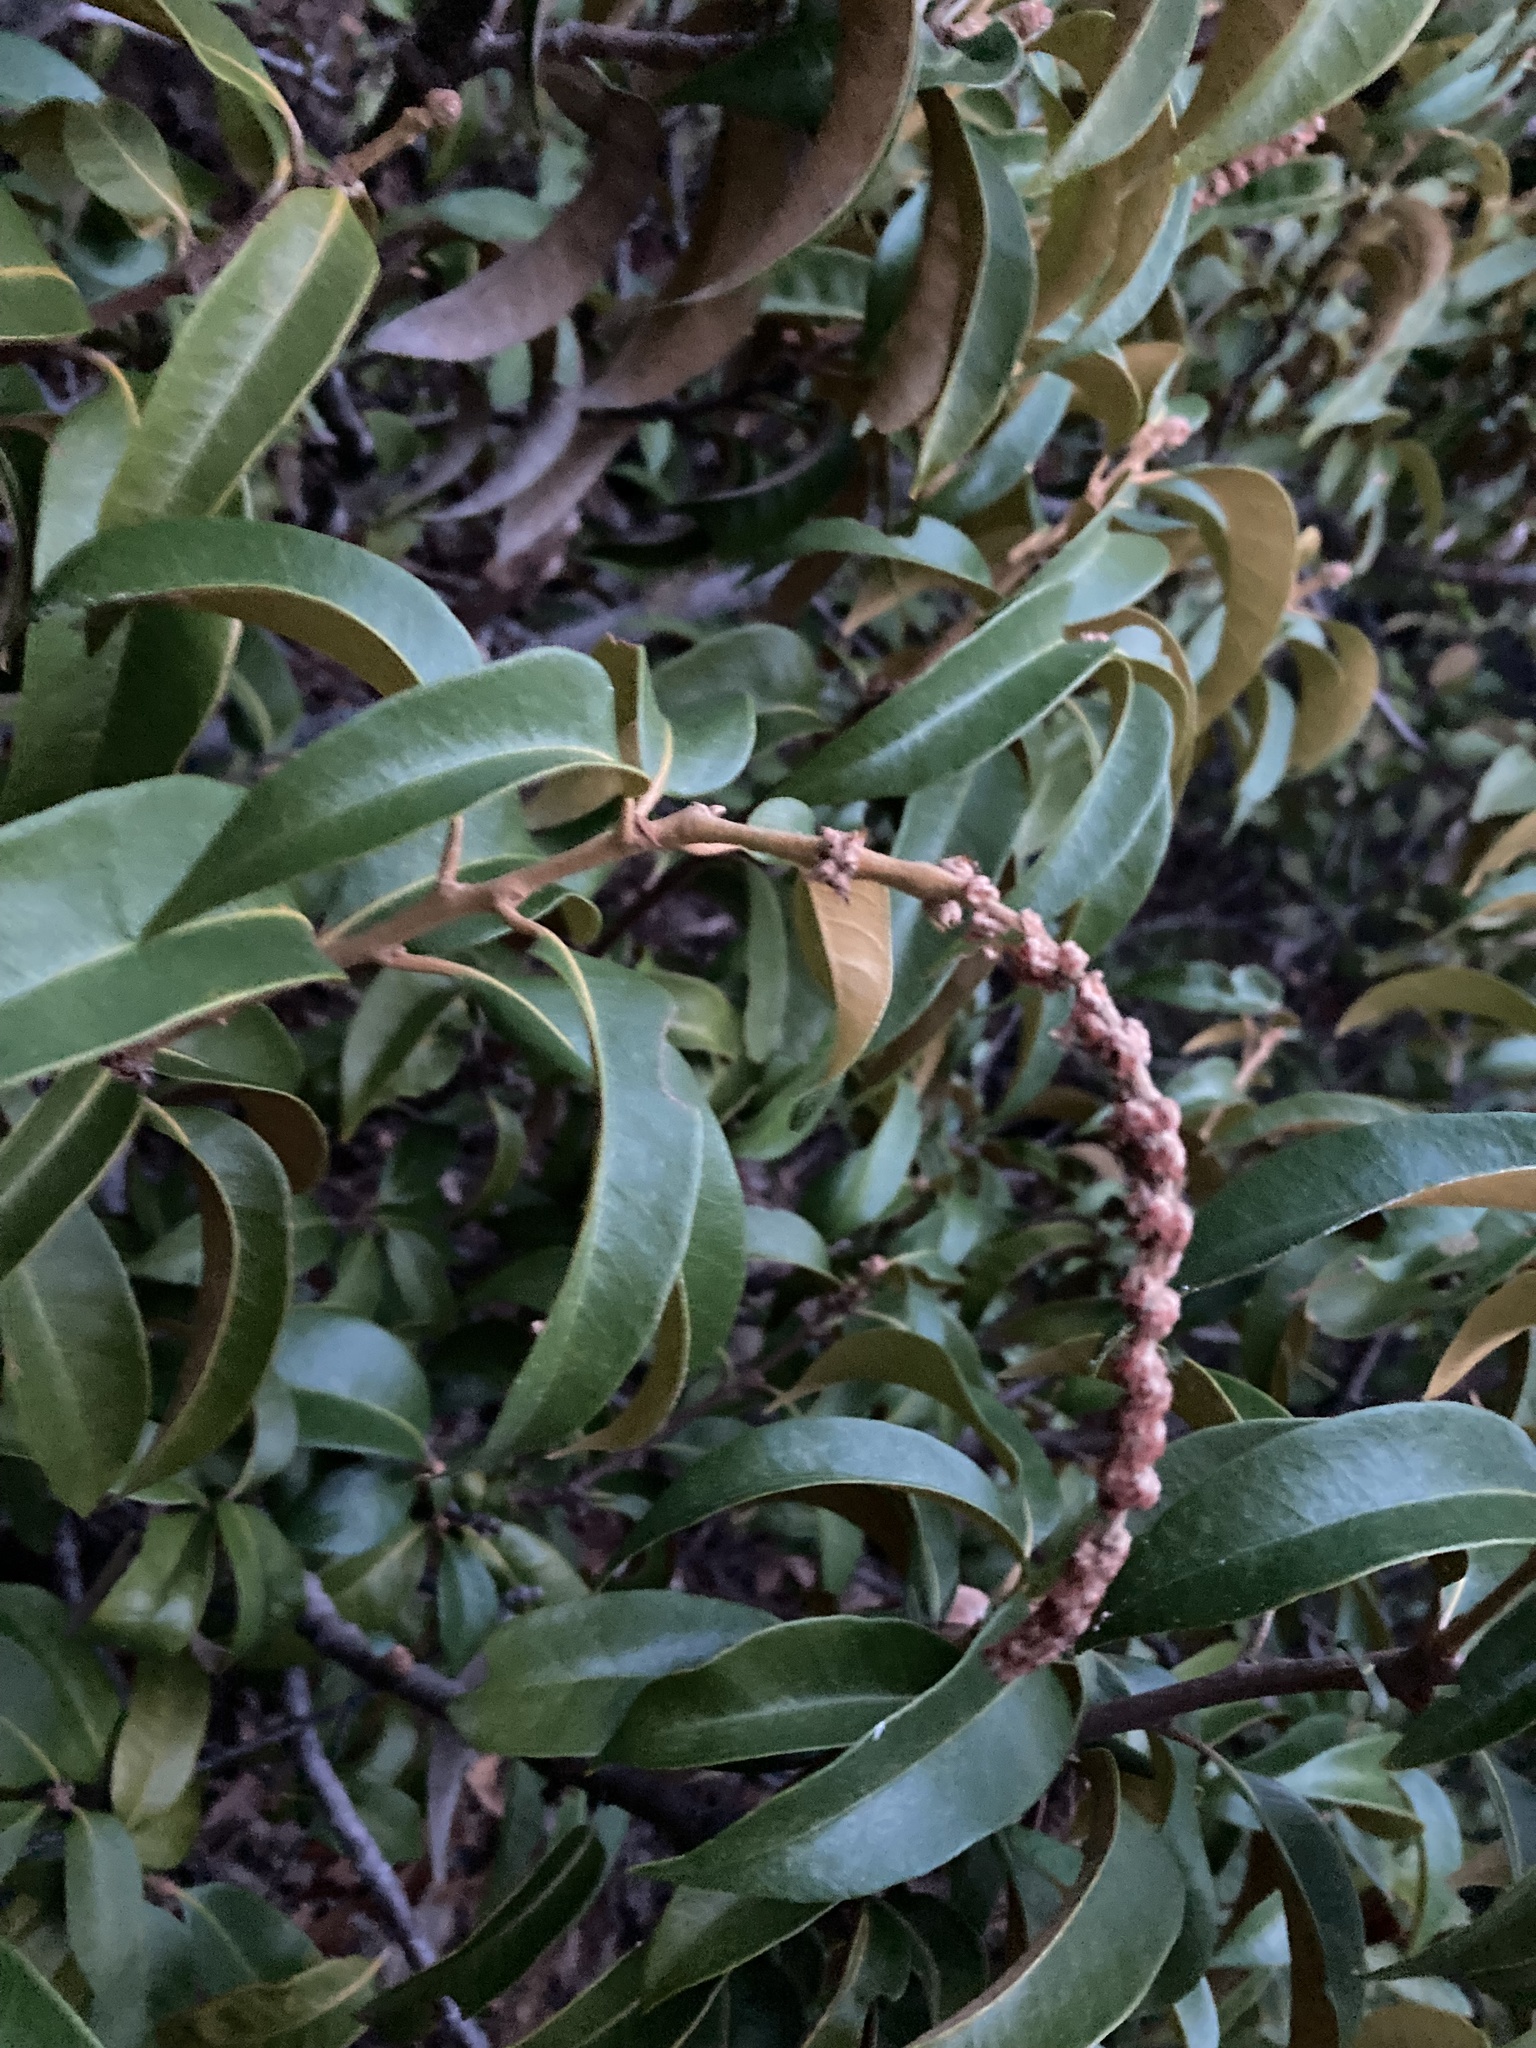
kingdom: Plantae
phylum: Tracheophyta
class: Magnoliopsida
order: Fagales
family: Fagaceae
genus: Chrysolepis
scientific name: Chrysolepis chrysophylla
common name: Giant chinquapin
